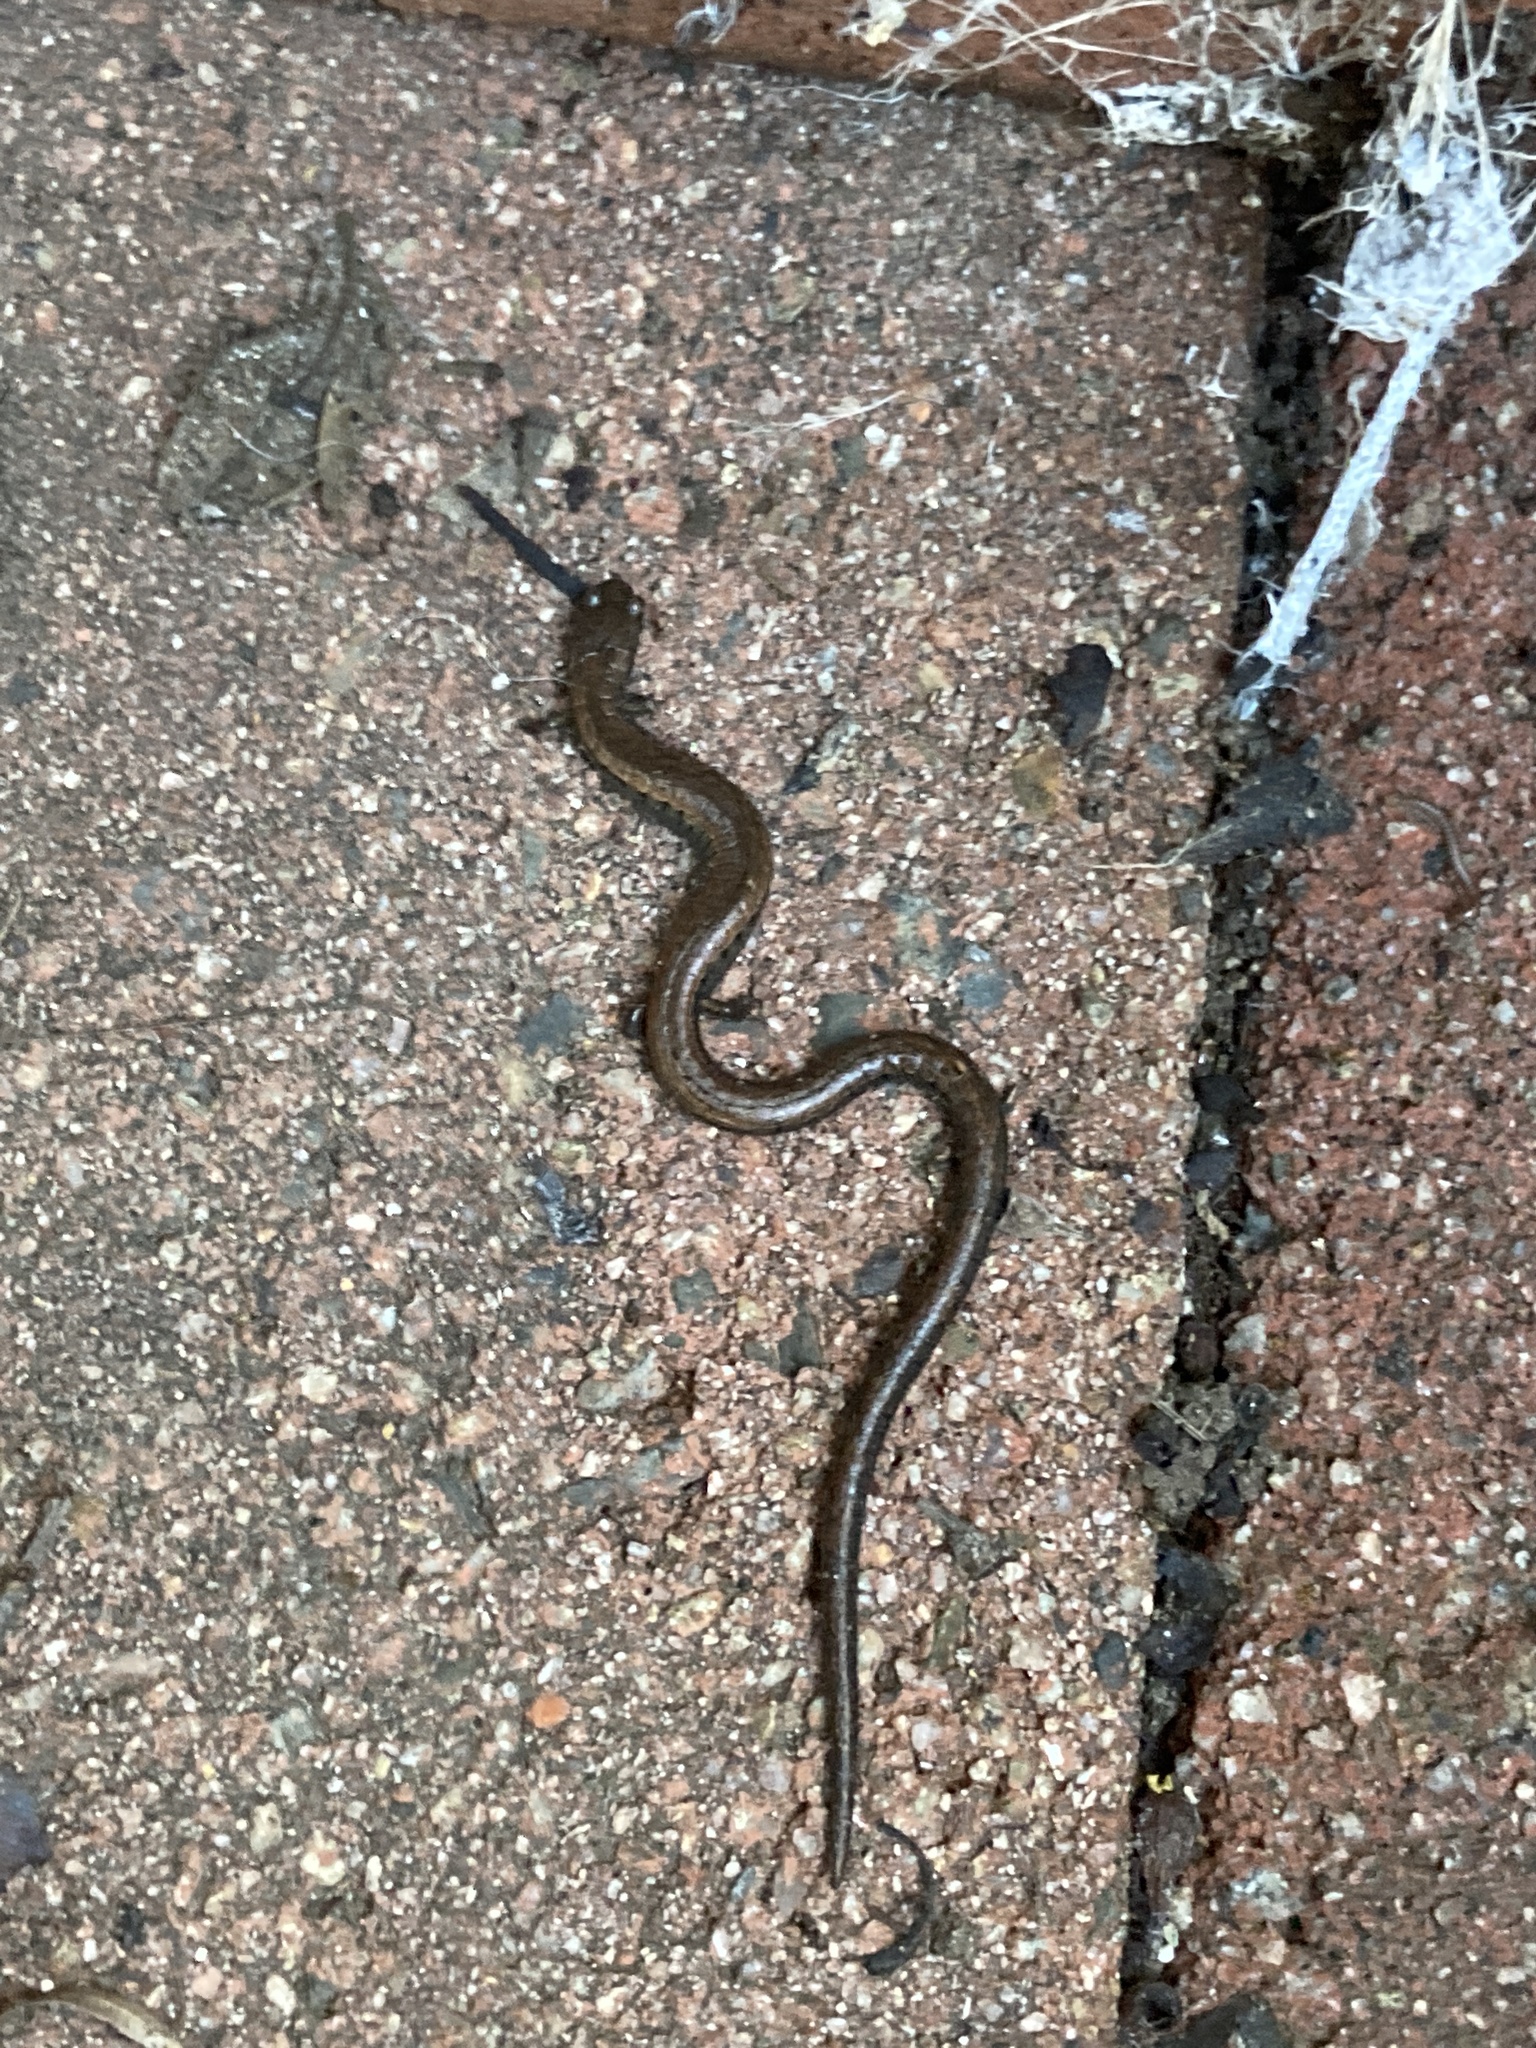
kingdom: Animalia
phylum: Chordata
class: Amphibia
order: Caudata
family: Plethodontidae
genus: Batrachoseps
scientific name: Batrachoseps nigriventris
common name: Black-bellied slender salamander
